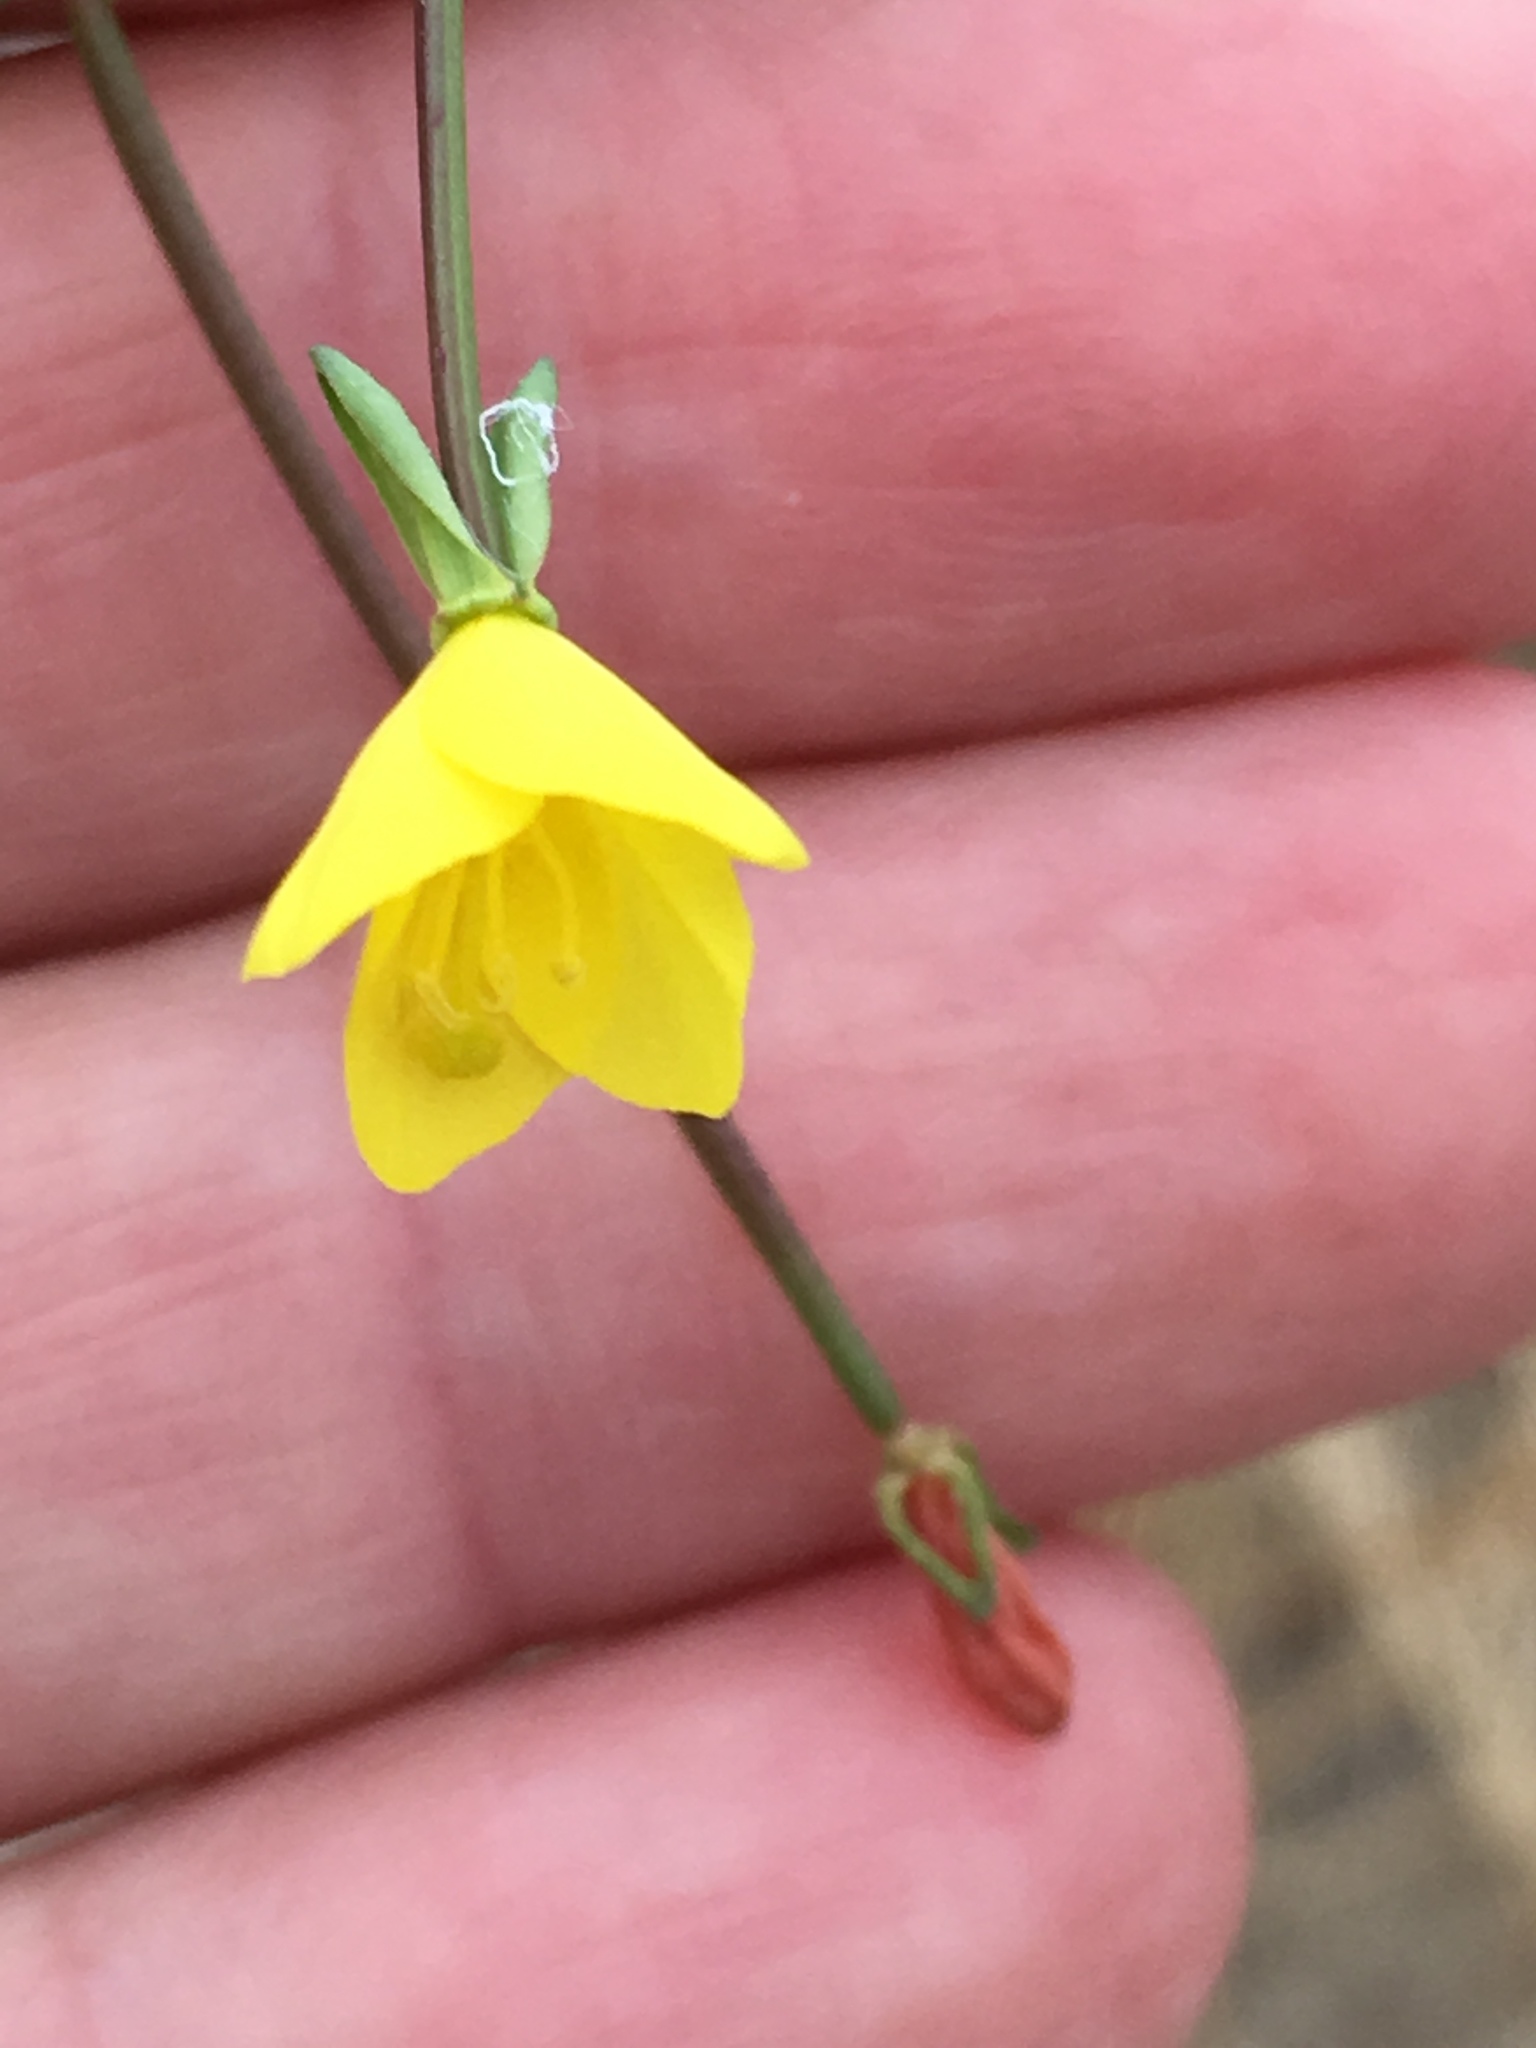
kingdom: Plantae
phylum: Tracheophyta
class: Magnoliopsida
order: Myrtales
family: Onagraceae
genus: Eulobus
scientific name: Eulobus californicus
